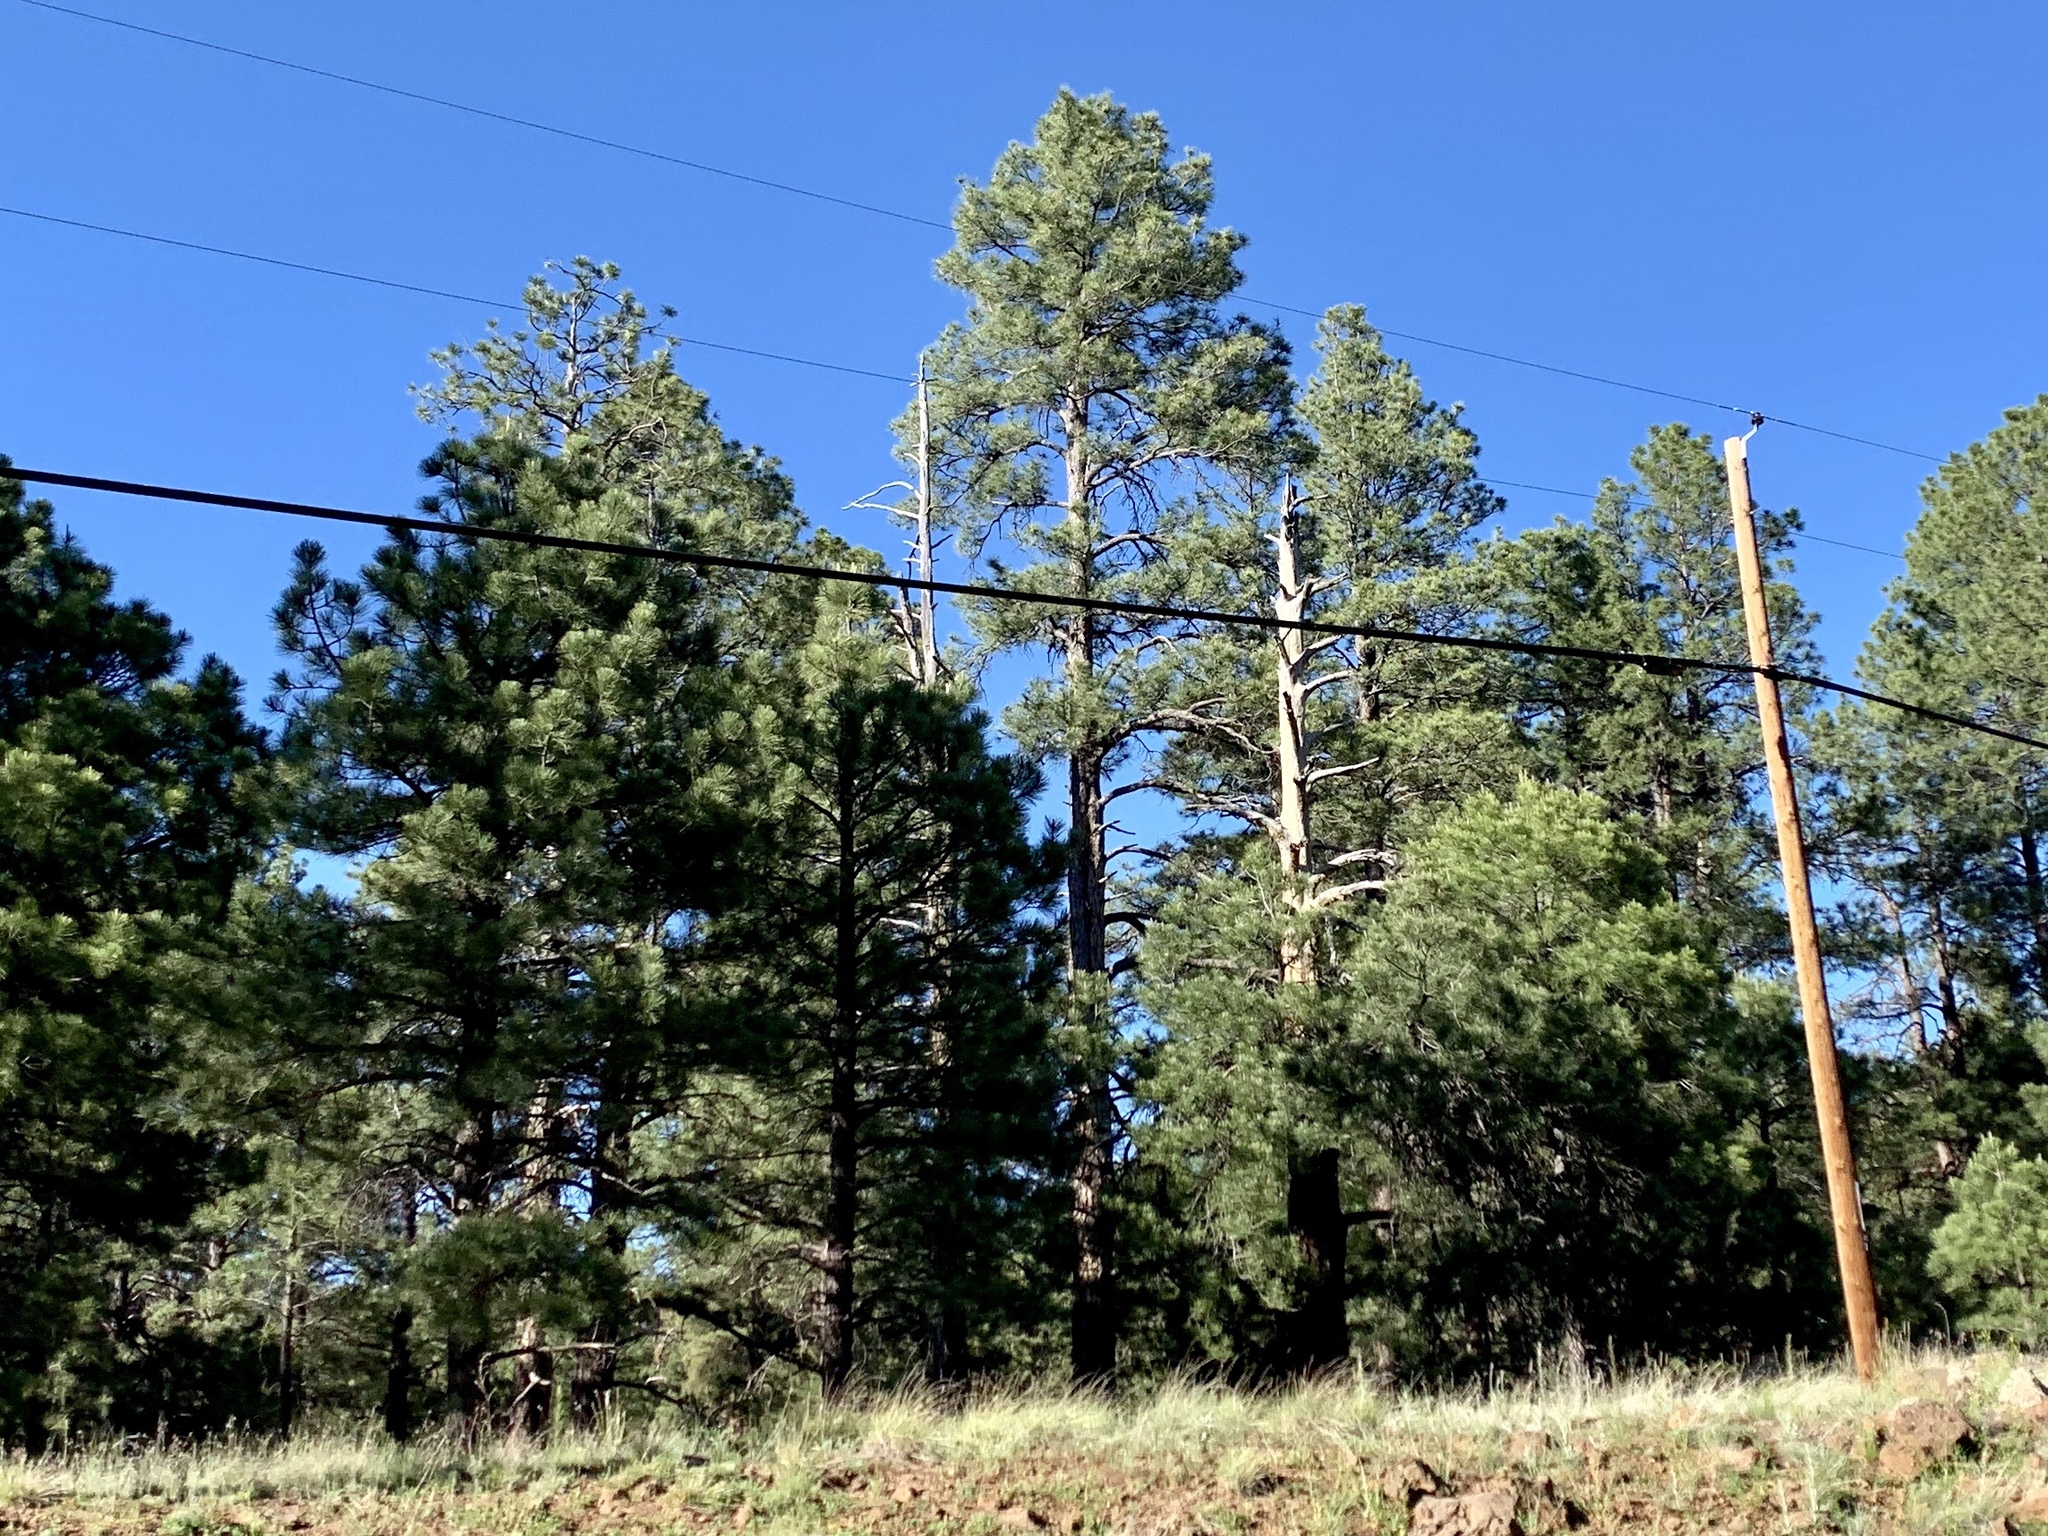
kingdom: Plantae
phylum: Tracheophyta
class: Pinopsida
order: Pinales
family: Pinaceae
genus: Pinus
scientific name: Pinus ponderosa
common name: Western yellow-pine
